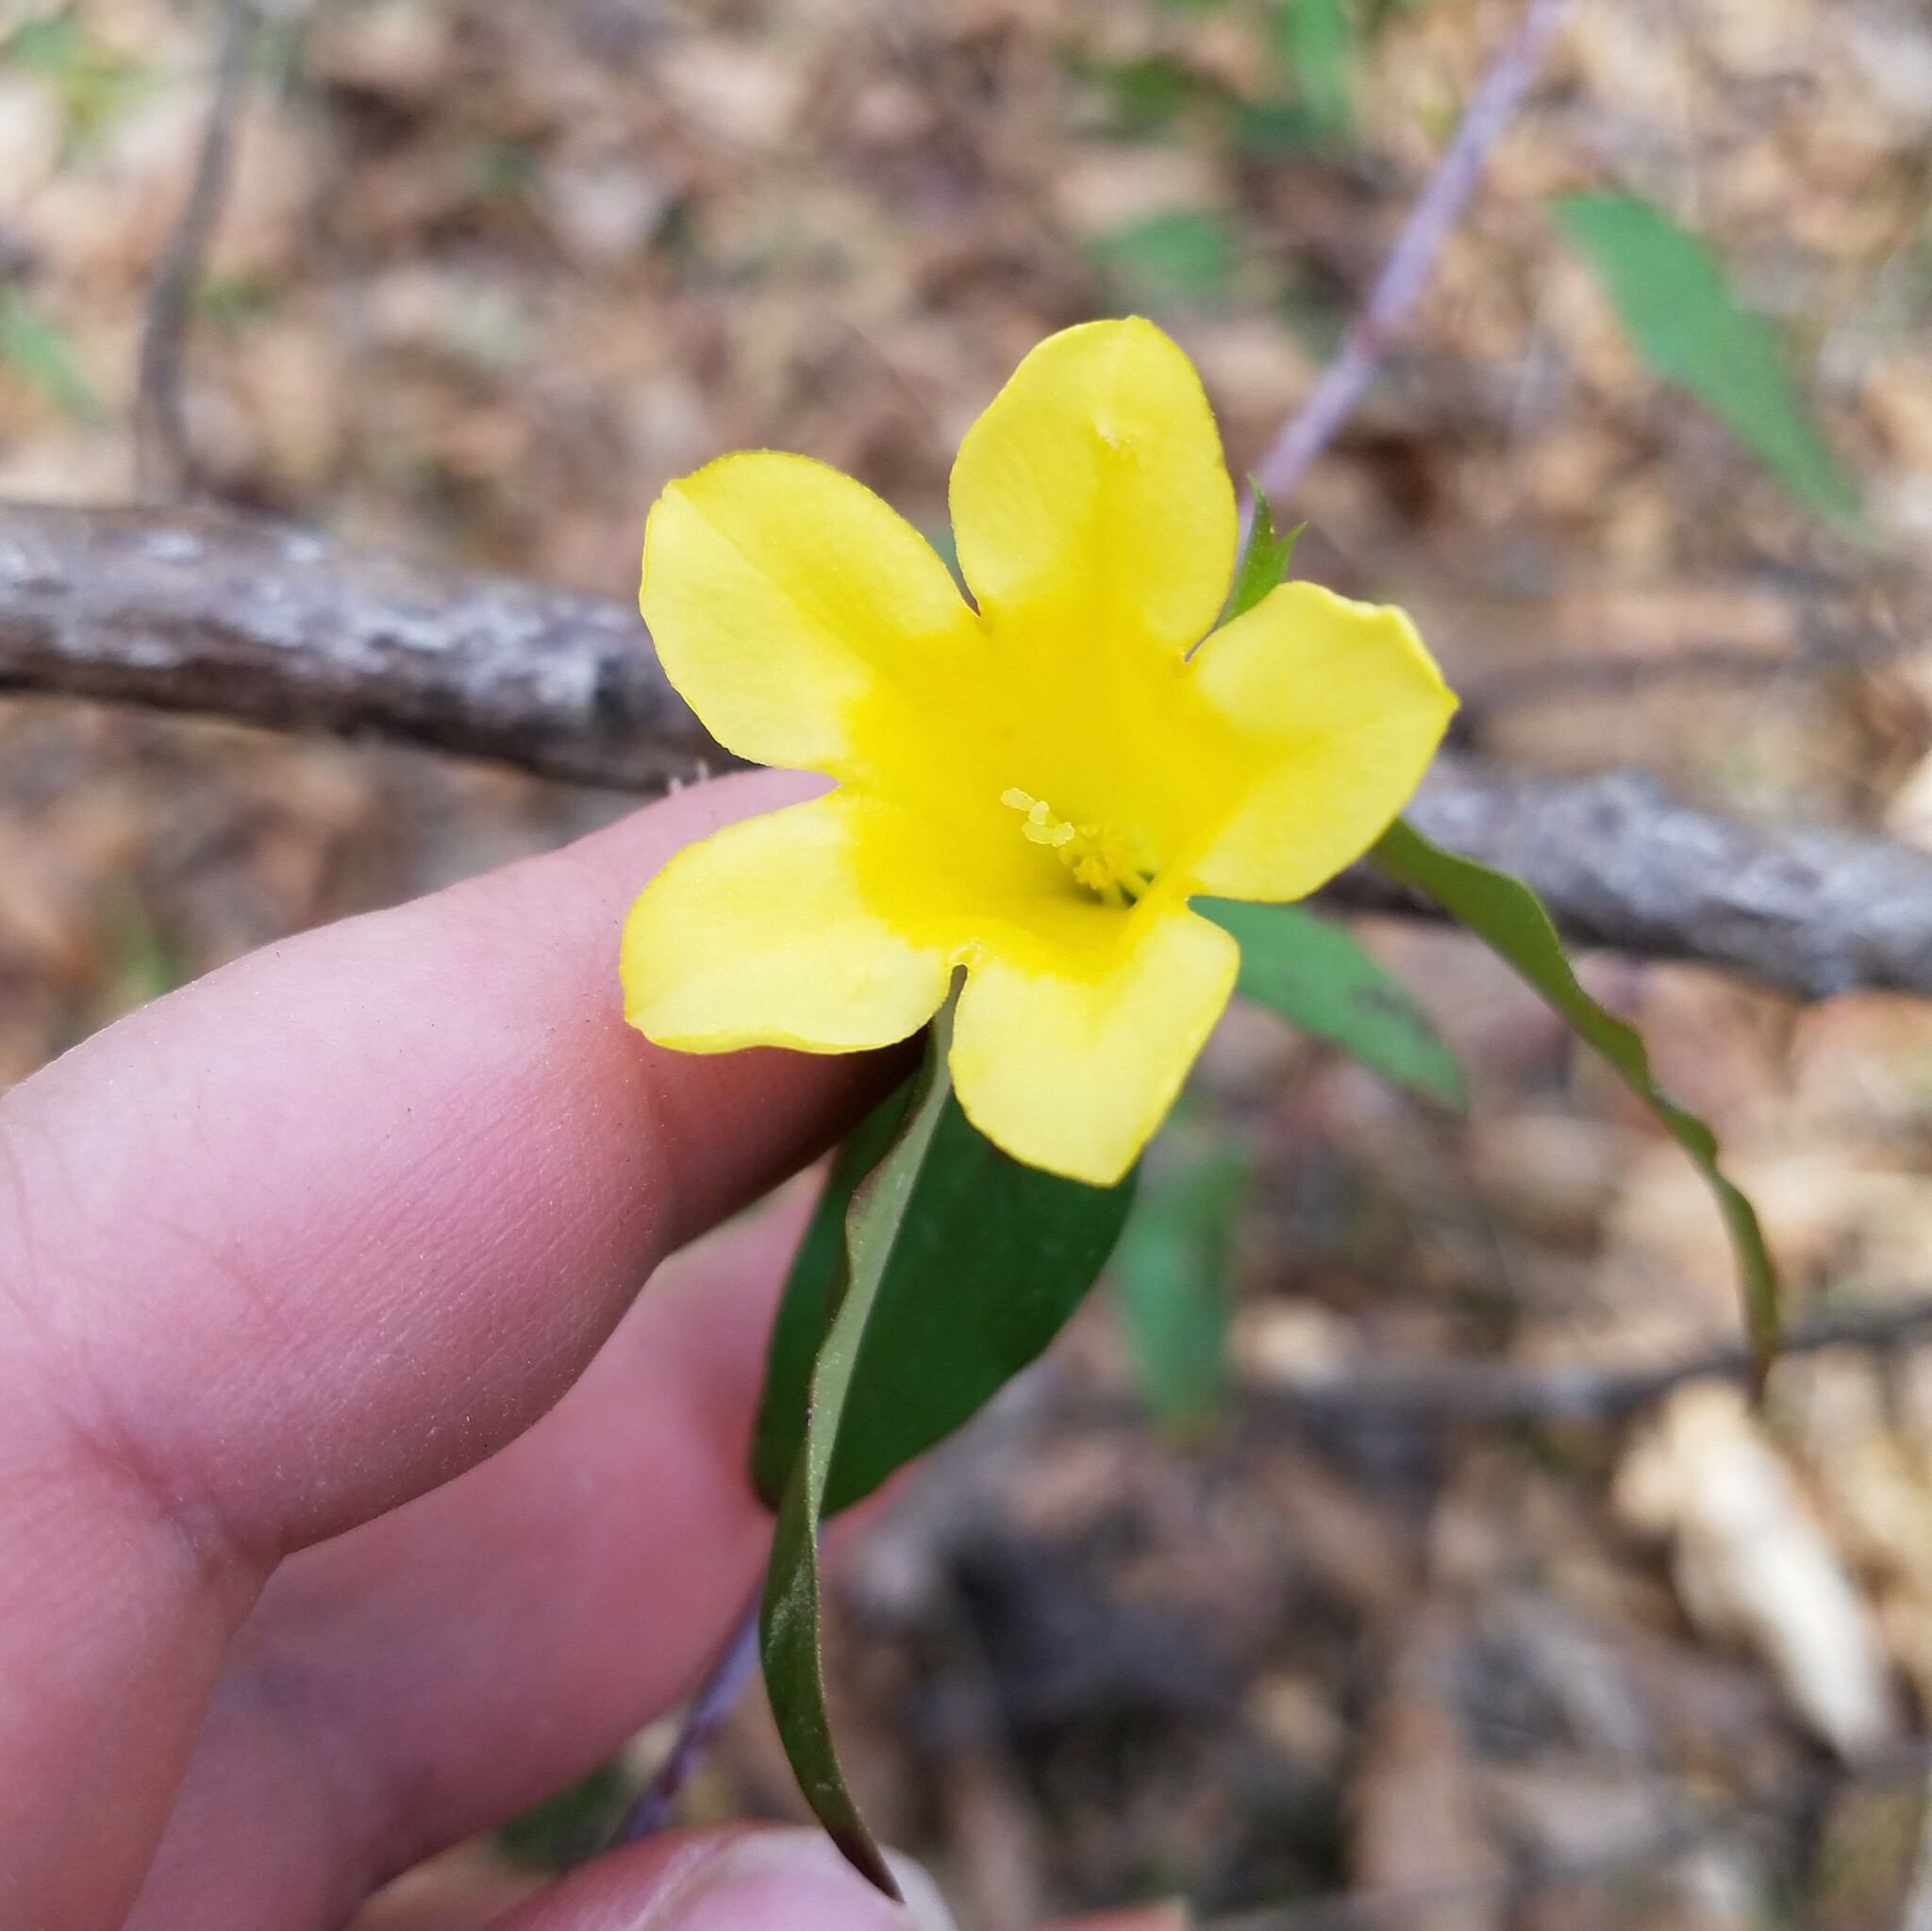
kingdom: Plantae
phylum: Tracheophyta
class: Magnoliopsida
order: Gentianales
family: Gelsemiaceae
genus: Gelsemium
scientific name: Gelsemium sempervirens
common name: Carolina-jasmine
